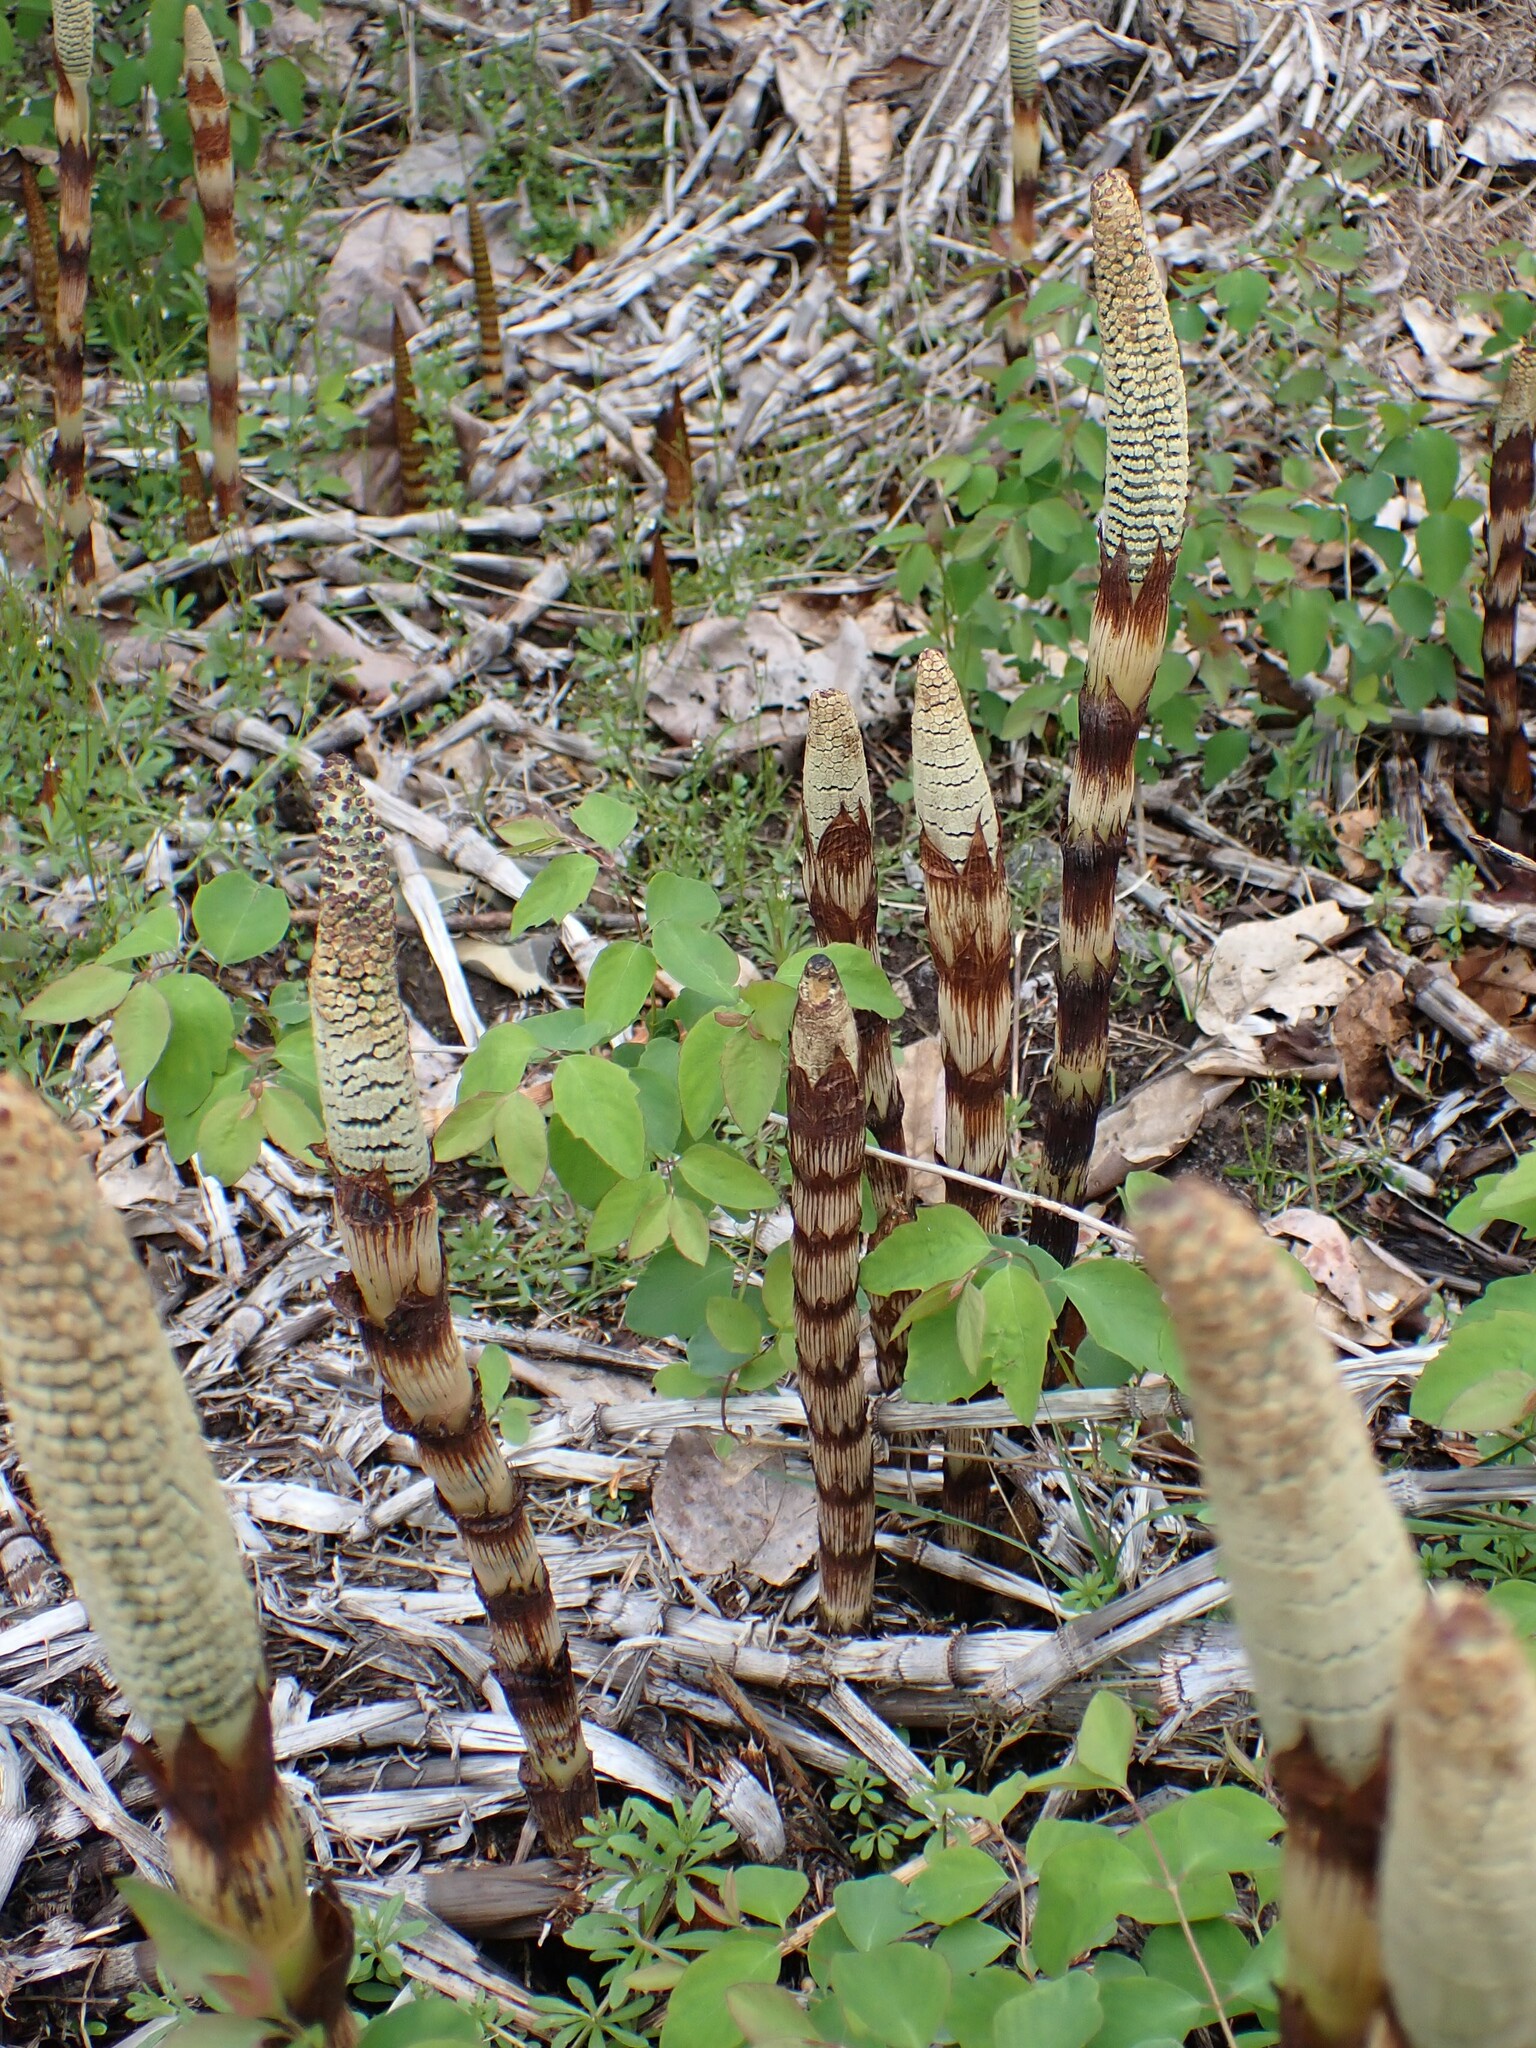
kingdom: Plantae
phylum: Tracheophyta
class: Polypodiopsida
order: Equisetales
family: Equisetaceae
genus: Equisetum
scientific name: Equisetum braunii
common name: Braun's horsetail
